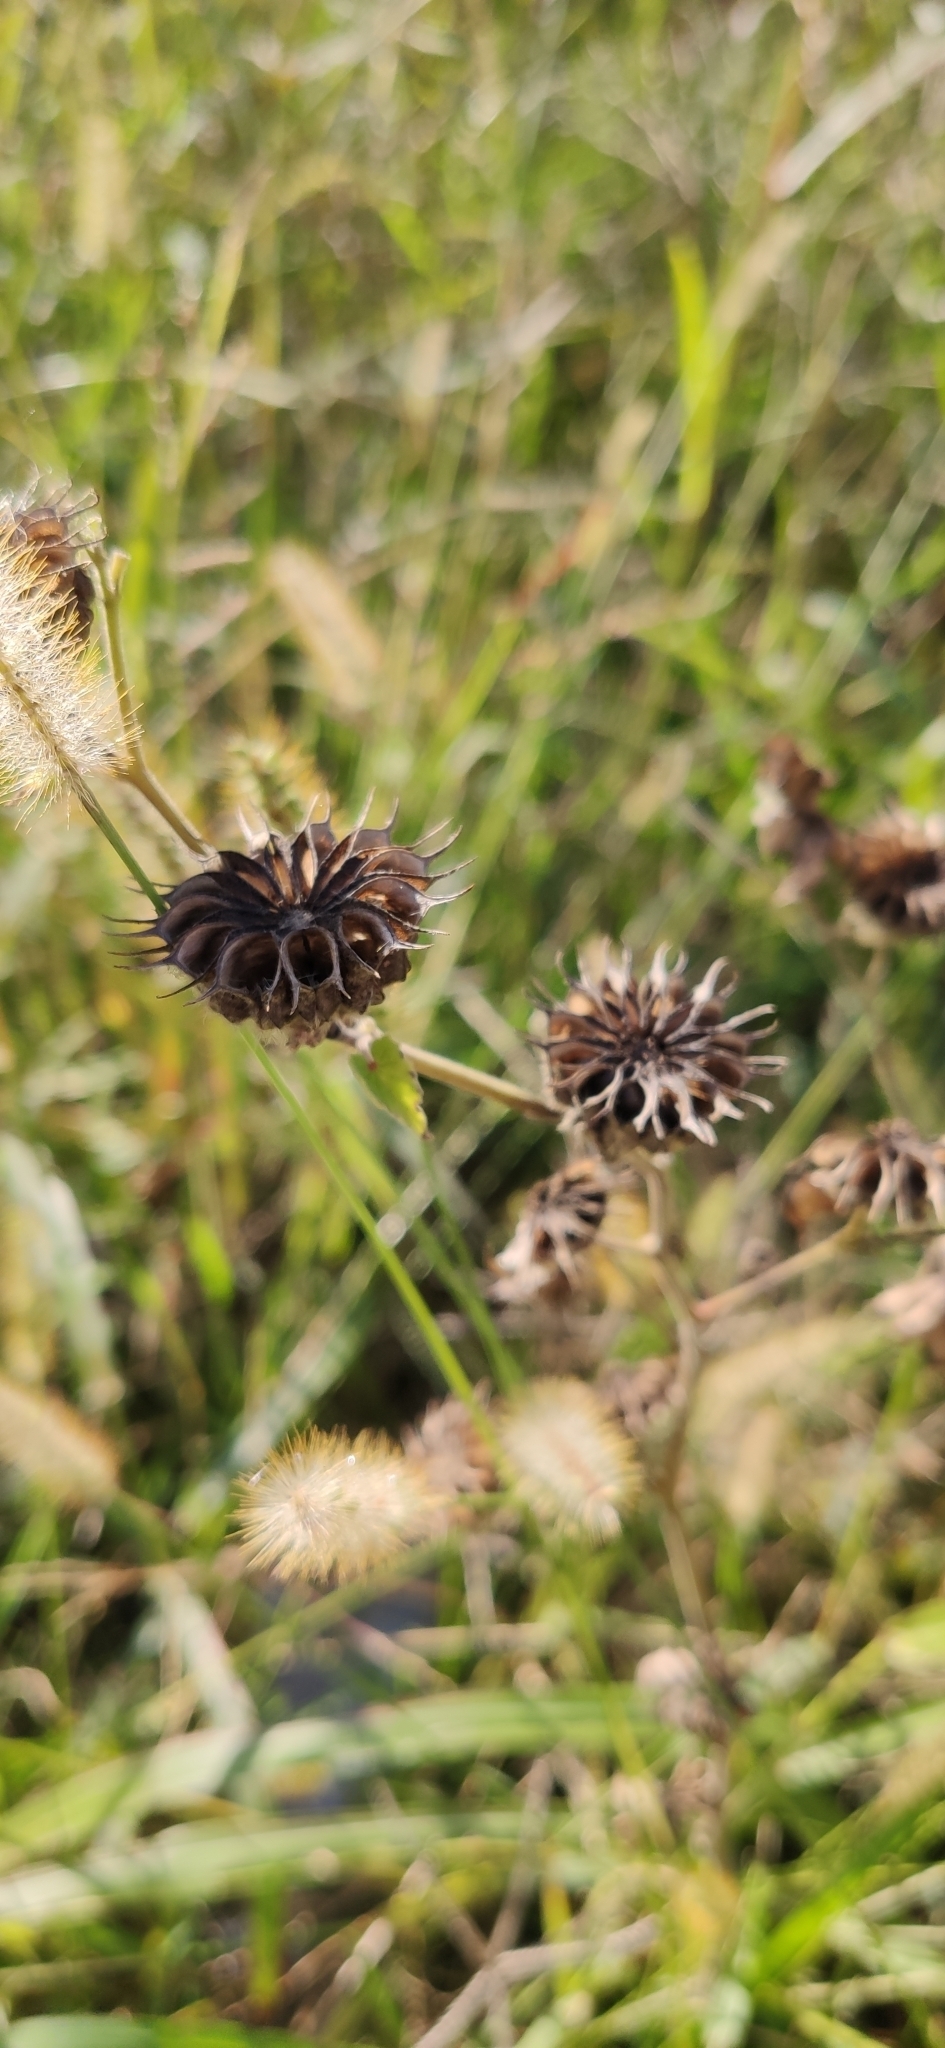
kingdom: Plantae
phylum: Tracheophyta
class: Magnoliopsida
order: Malvales
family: Malvaceae
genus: Abutilon
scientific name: Abutilon theophrasti
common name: Velvetleaf
